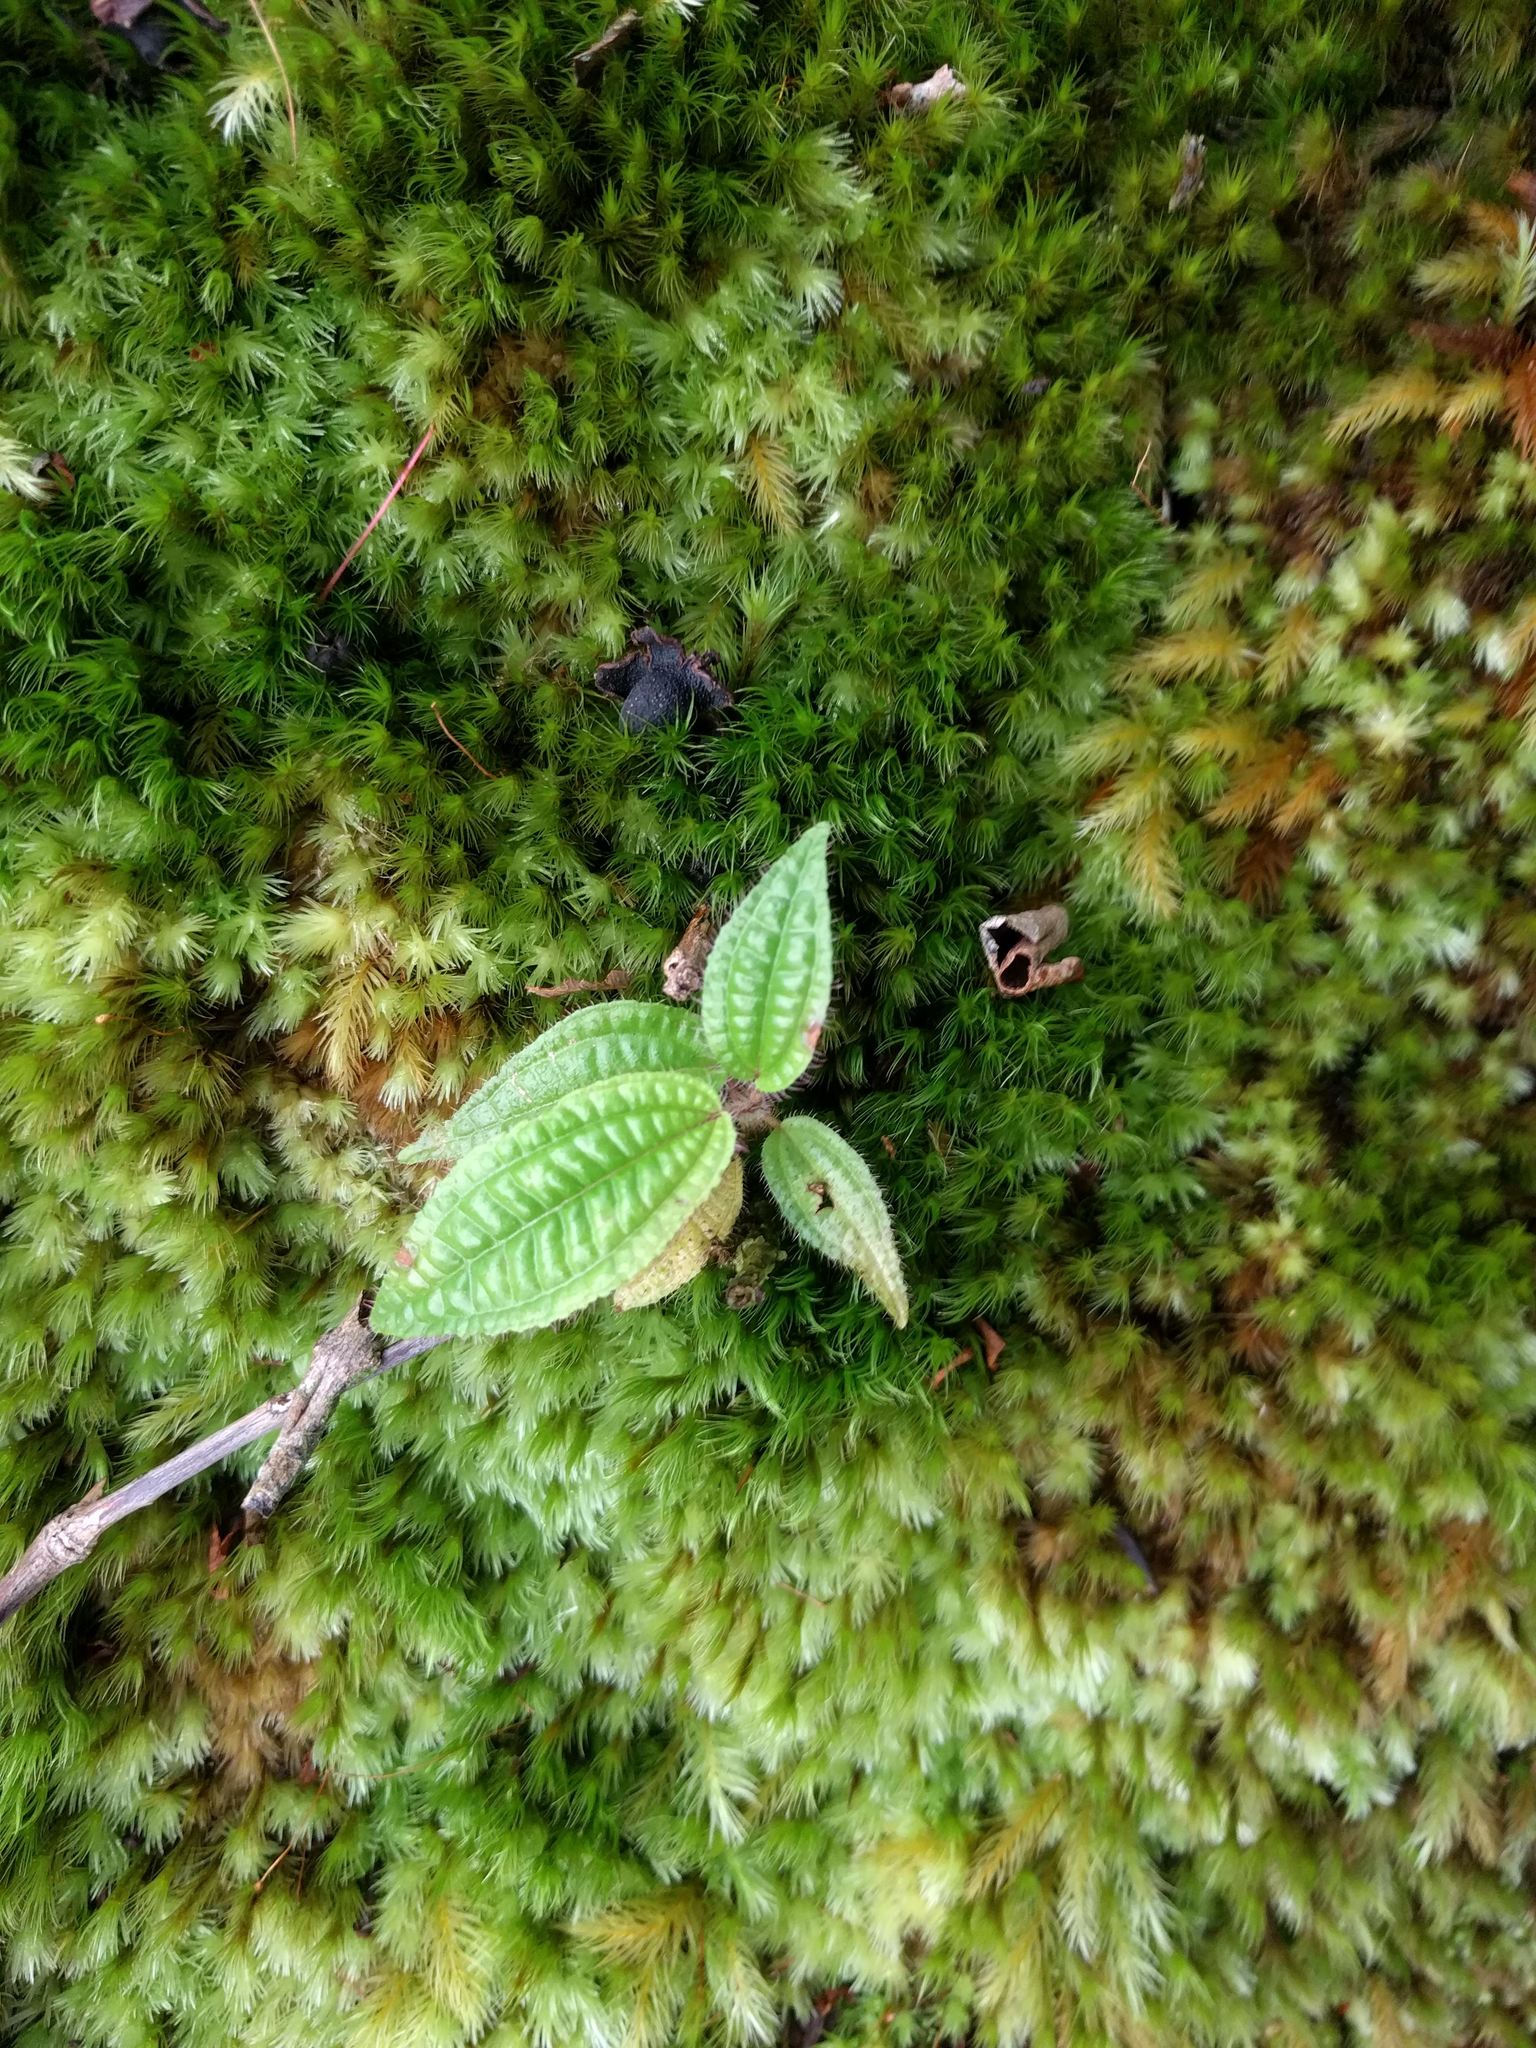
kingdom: Plantae
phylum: Tracheophyta
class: Magnoliopsida
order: Myrtales
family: Melastomataceae
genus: Miconia
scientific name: Miconia crenata
